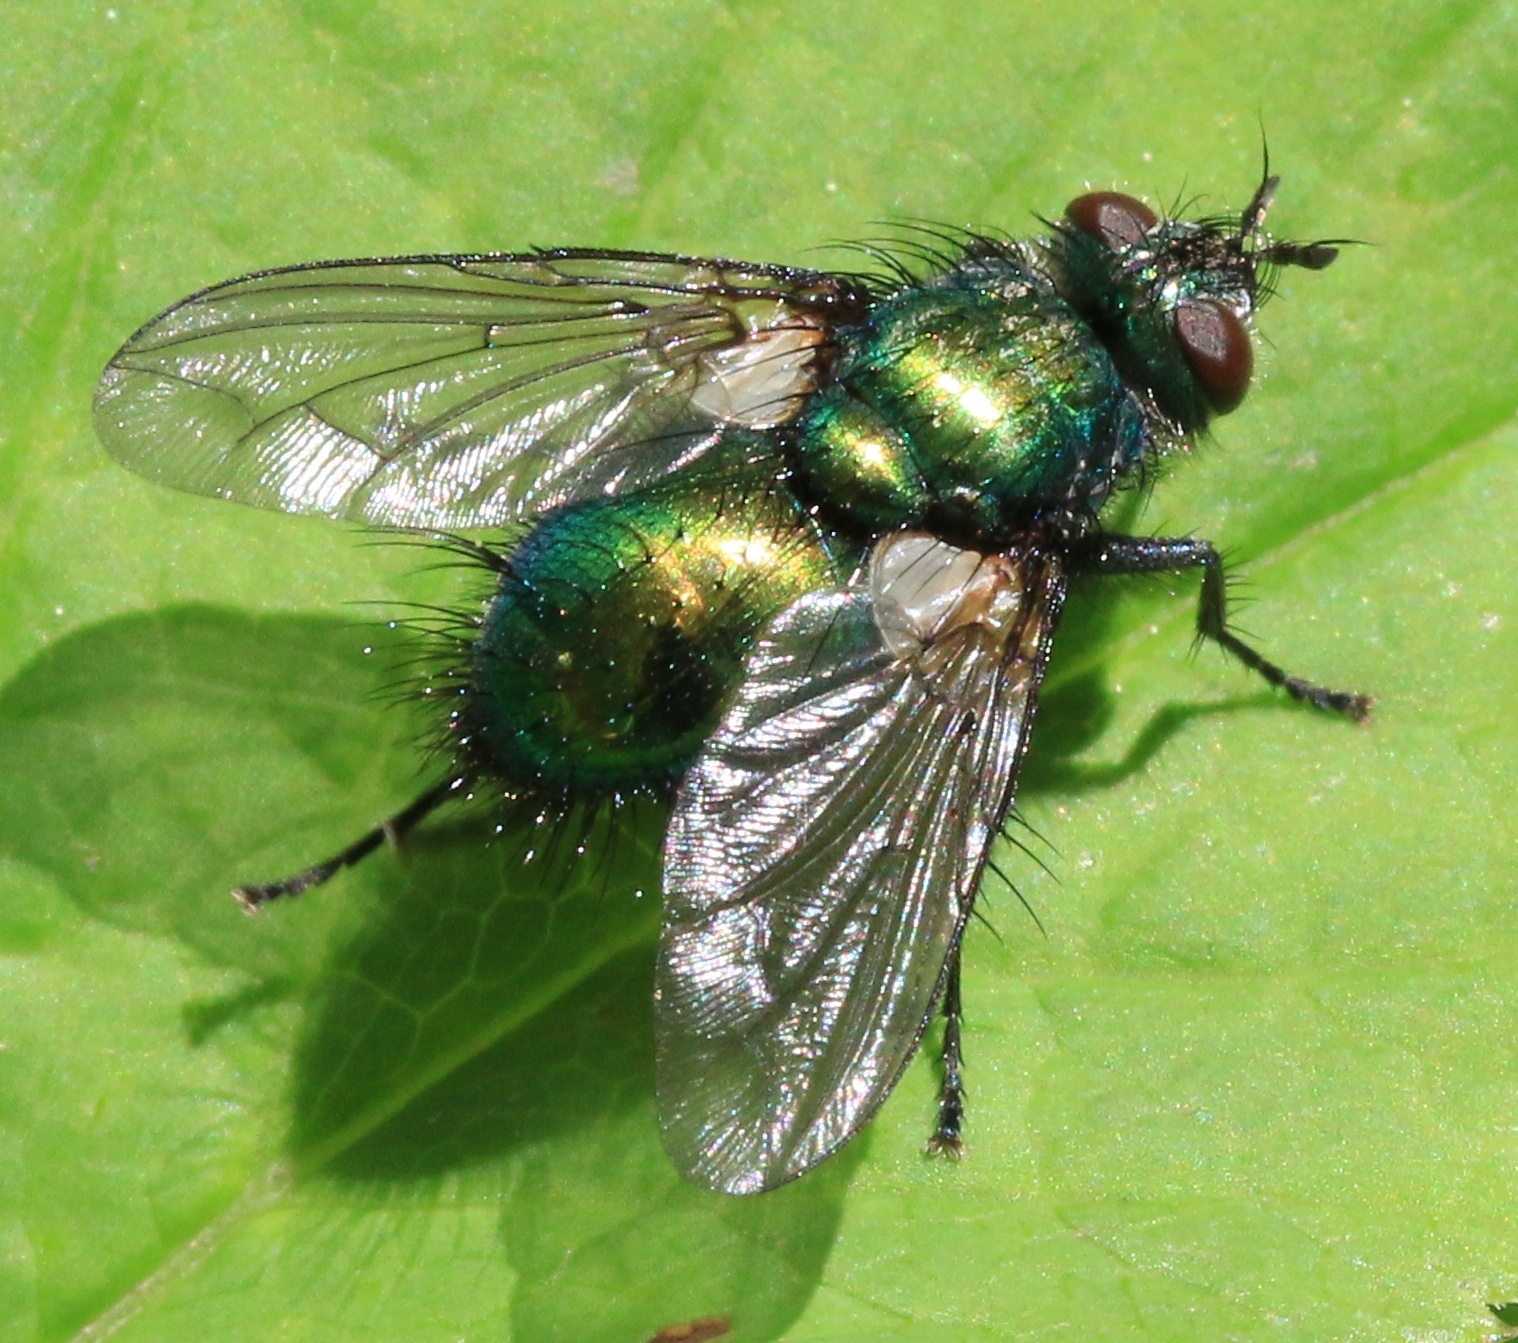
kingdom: Animalia
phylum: Arthropoda
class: Insecta
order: Diptera
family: Tachinidae
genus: Gymnocheta
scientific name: Gymnocheta viridis
